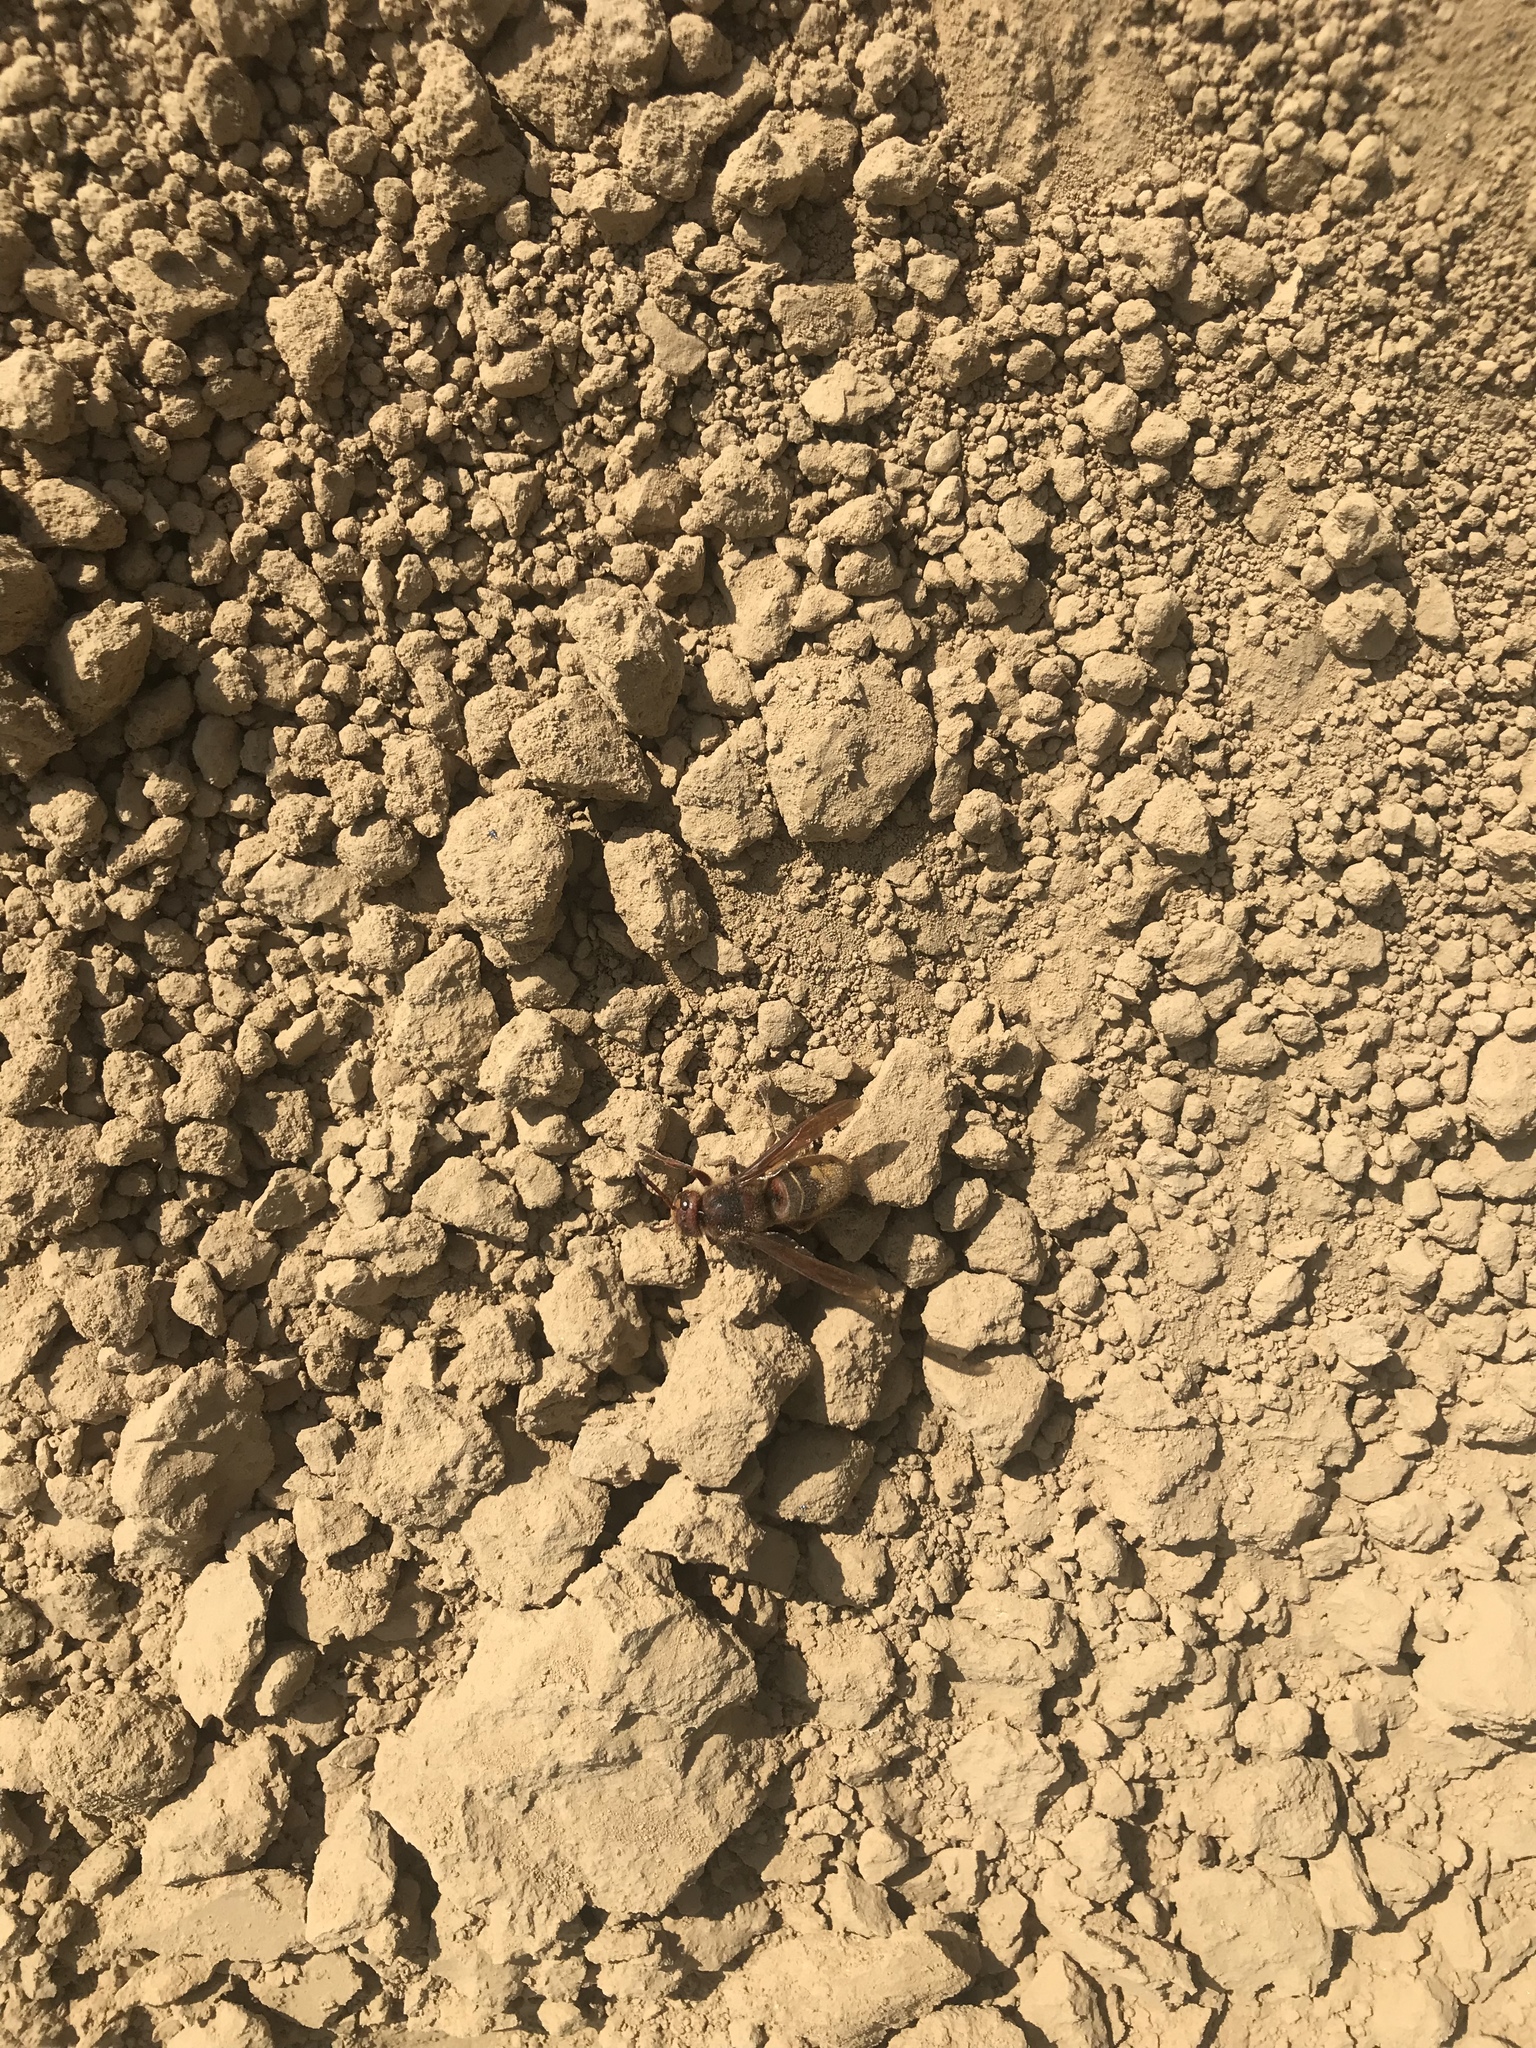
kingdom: Animalia
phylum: Arthropoda
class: Insecta
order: Hymenoptera
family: Vespidae
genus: Vespa
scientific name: Vespa crabro
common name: Hornet
